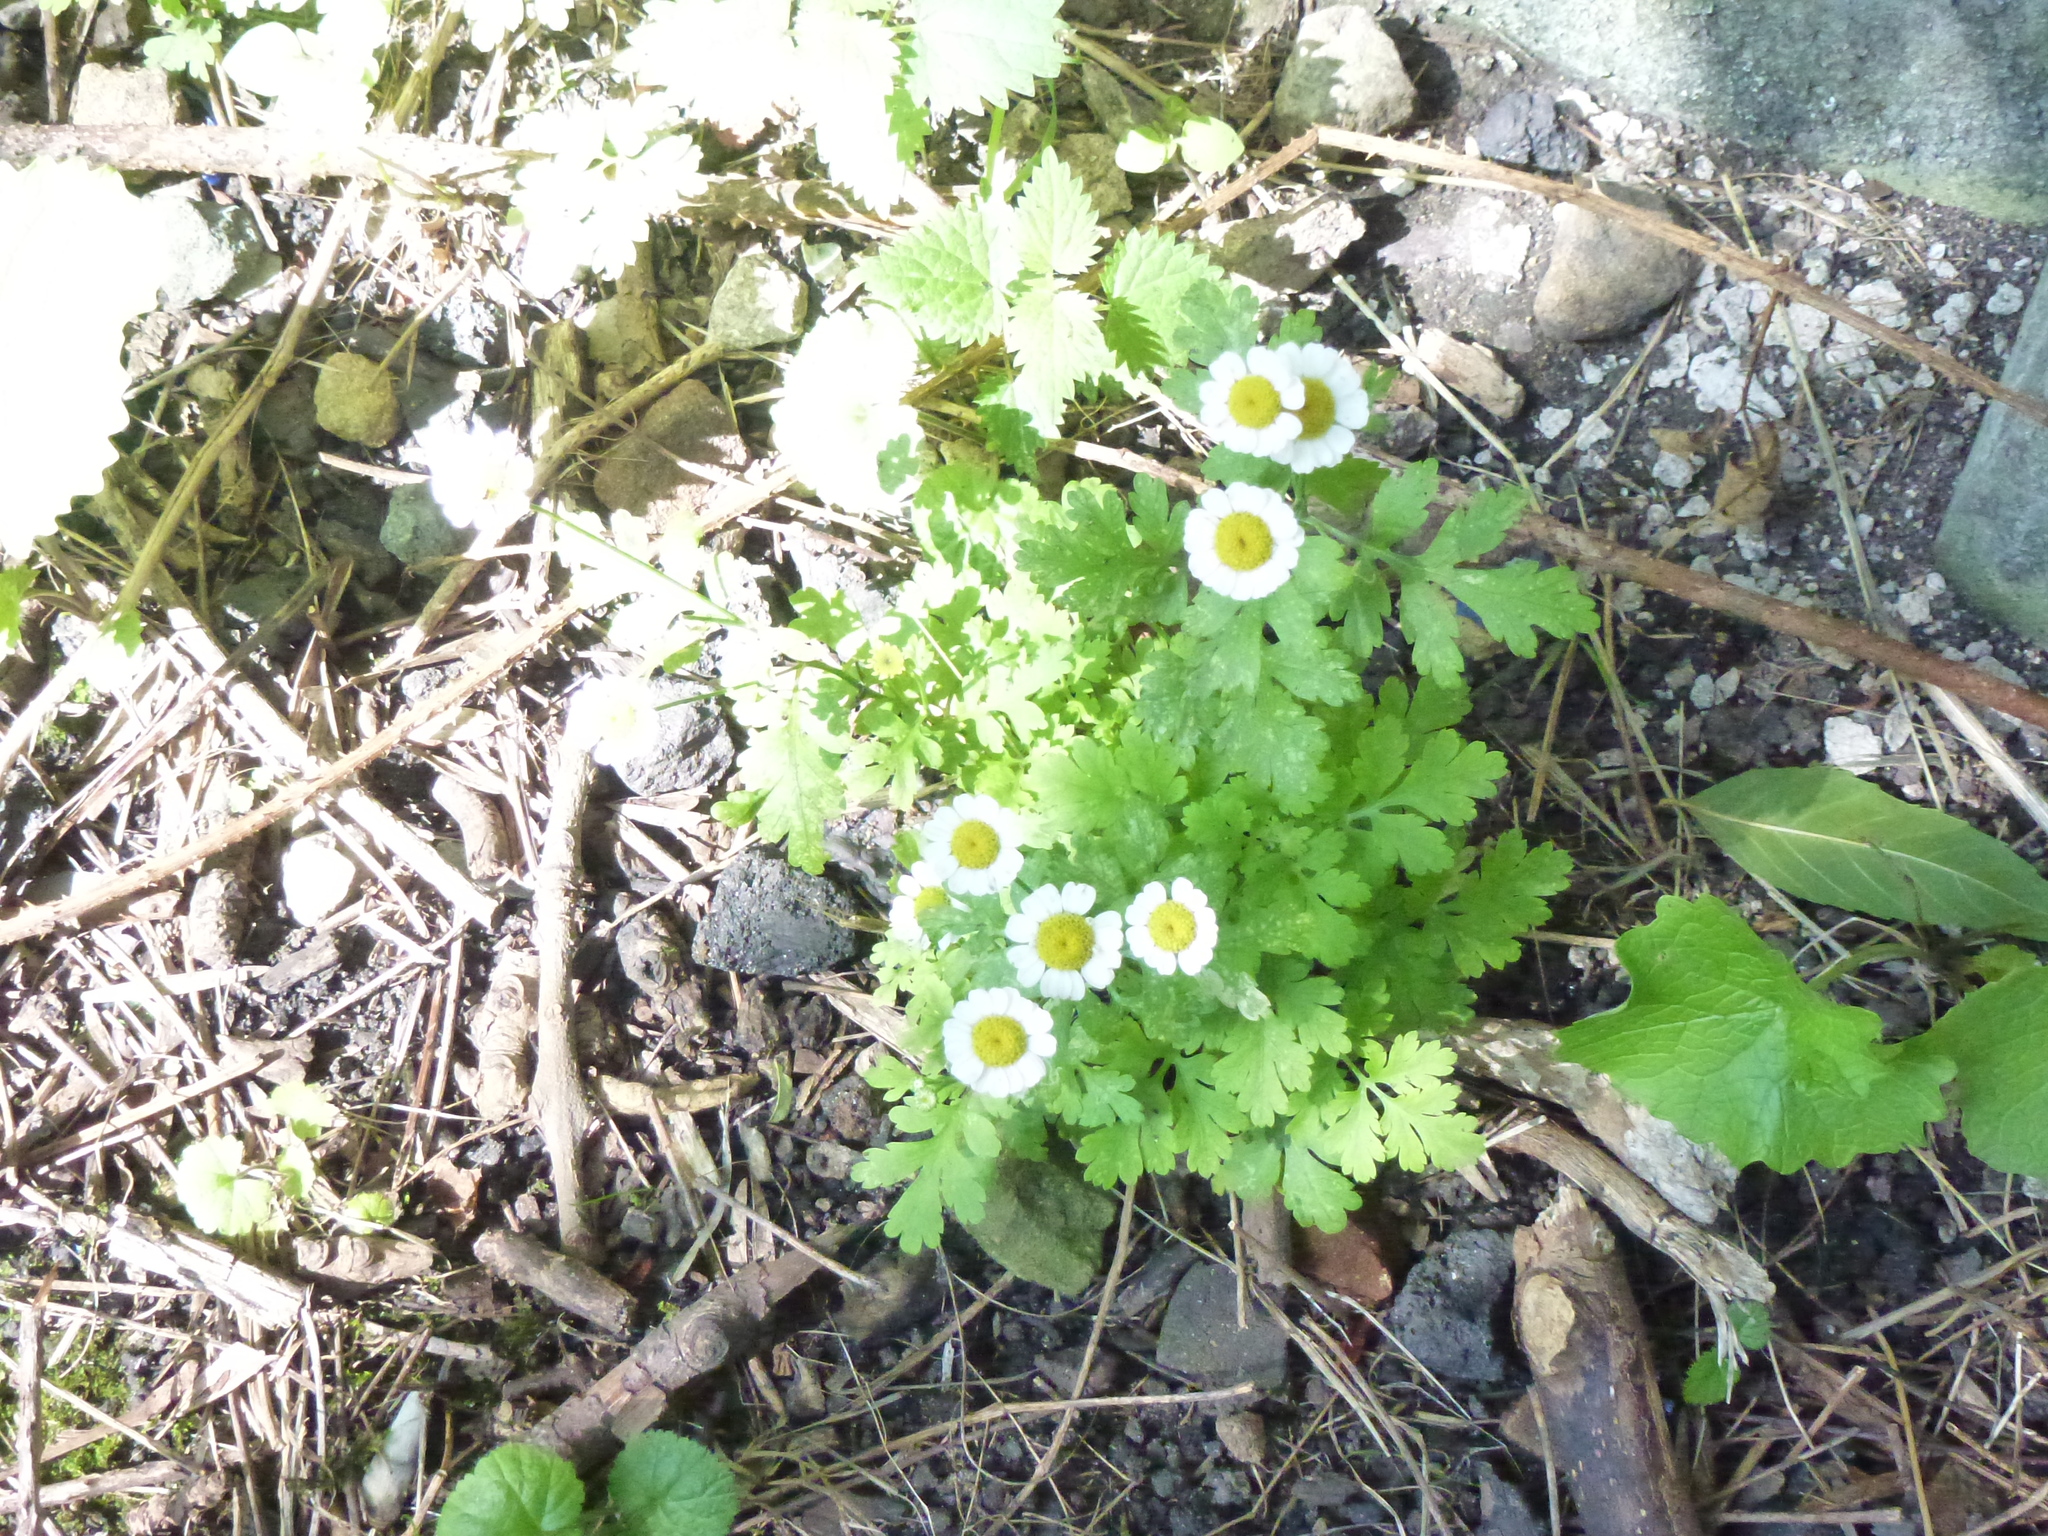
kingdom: Plantae
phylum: Tracheophyta
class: Magnoliopsida
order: Asterales
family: Asteraceae
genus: Tanacetum
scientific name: Tanacetum parthenium
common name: Feverfew
